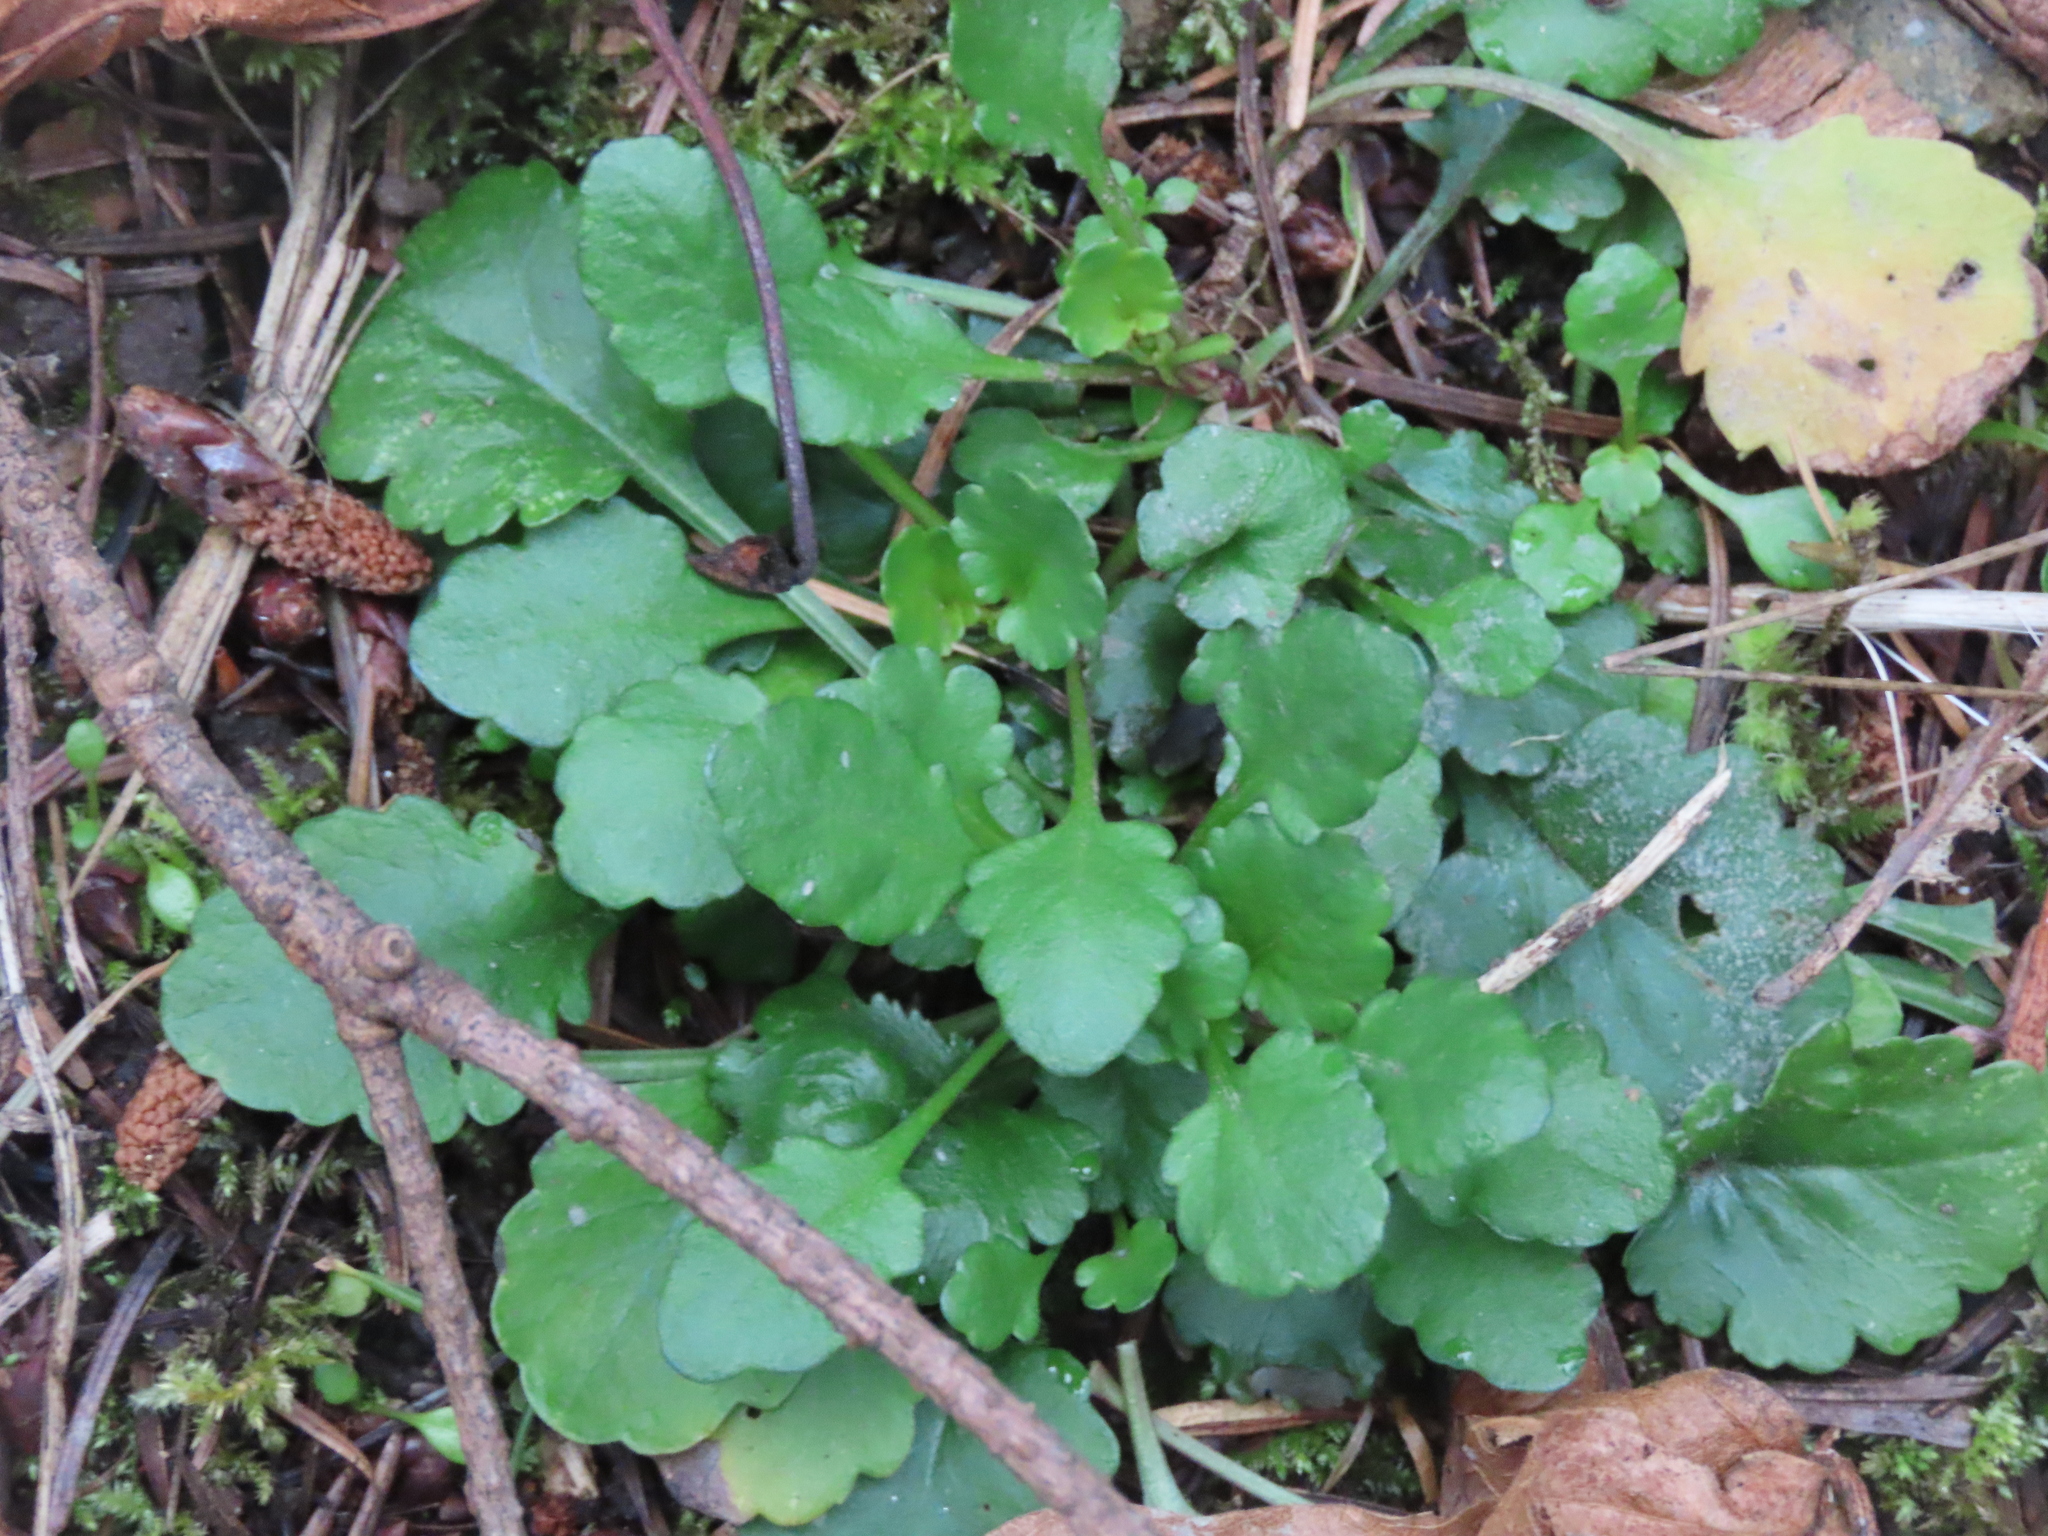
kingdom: Plantae
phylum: Tracheophyta
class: Magnoliopsida
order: Asterales
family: Asteraceae
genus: Leucanthemum
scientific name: Leucanthemum vulgare
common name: Oxeye daisy
